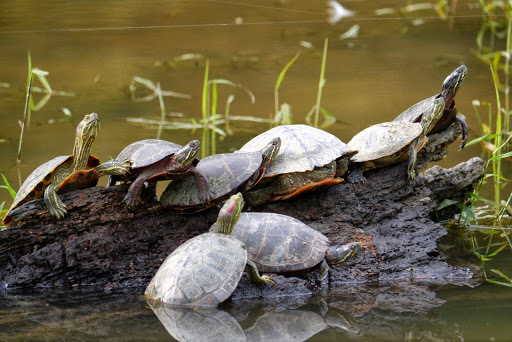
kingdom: Animalia
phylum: Chordata
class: Testudines
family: Emydidae
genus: Chrysemys
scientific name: Chrysemys picta
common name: Painted turtle
